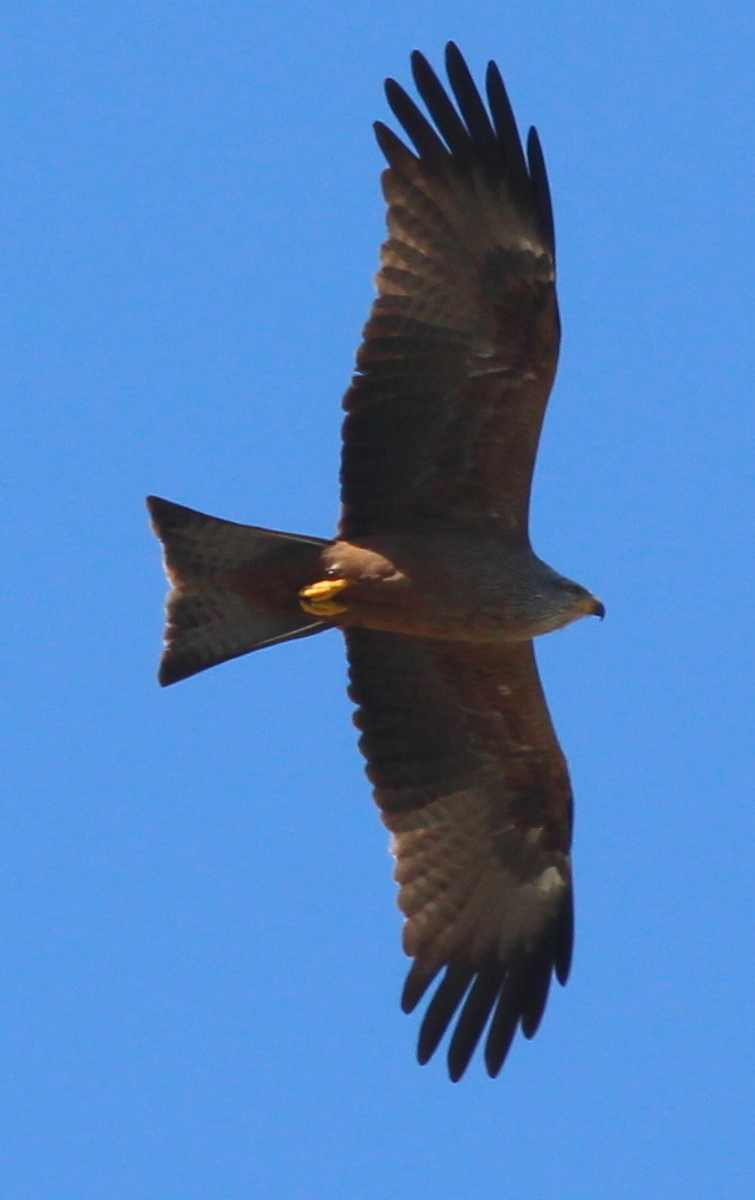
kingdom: Animalia
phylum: Chordata
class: Aves
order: Accipitriformes
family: Accipitridae
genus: Milvus
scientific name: Milvus migrans
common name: Black kite
